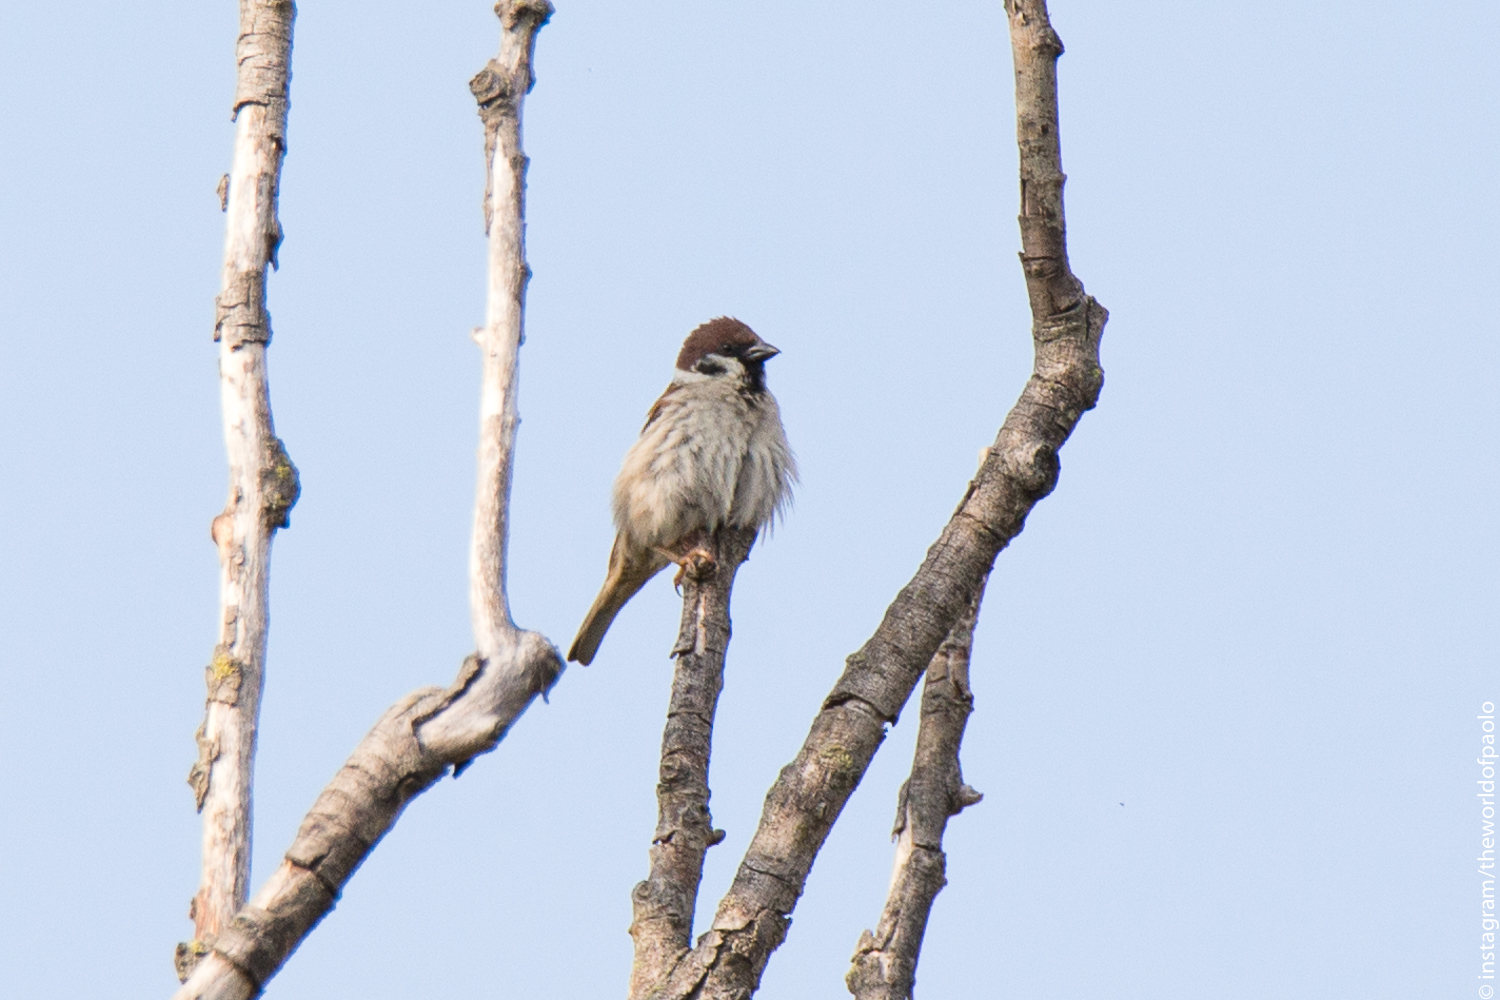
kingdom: Animalia
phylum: Chordata
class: Aves
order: Passeriformes
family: Passeridae
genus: Passer
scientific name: Passer montanus
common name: Eurasian tree sparrow
